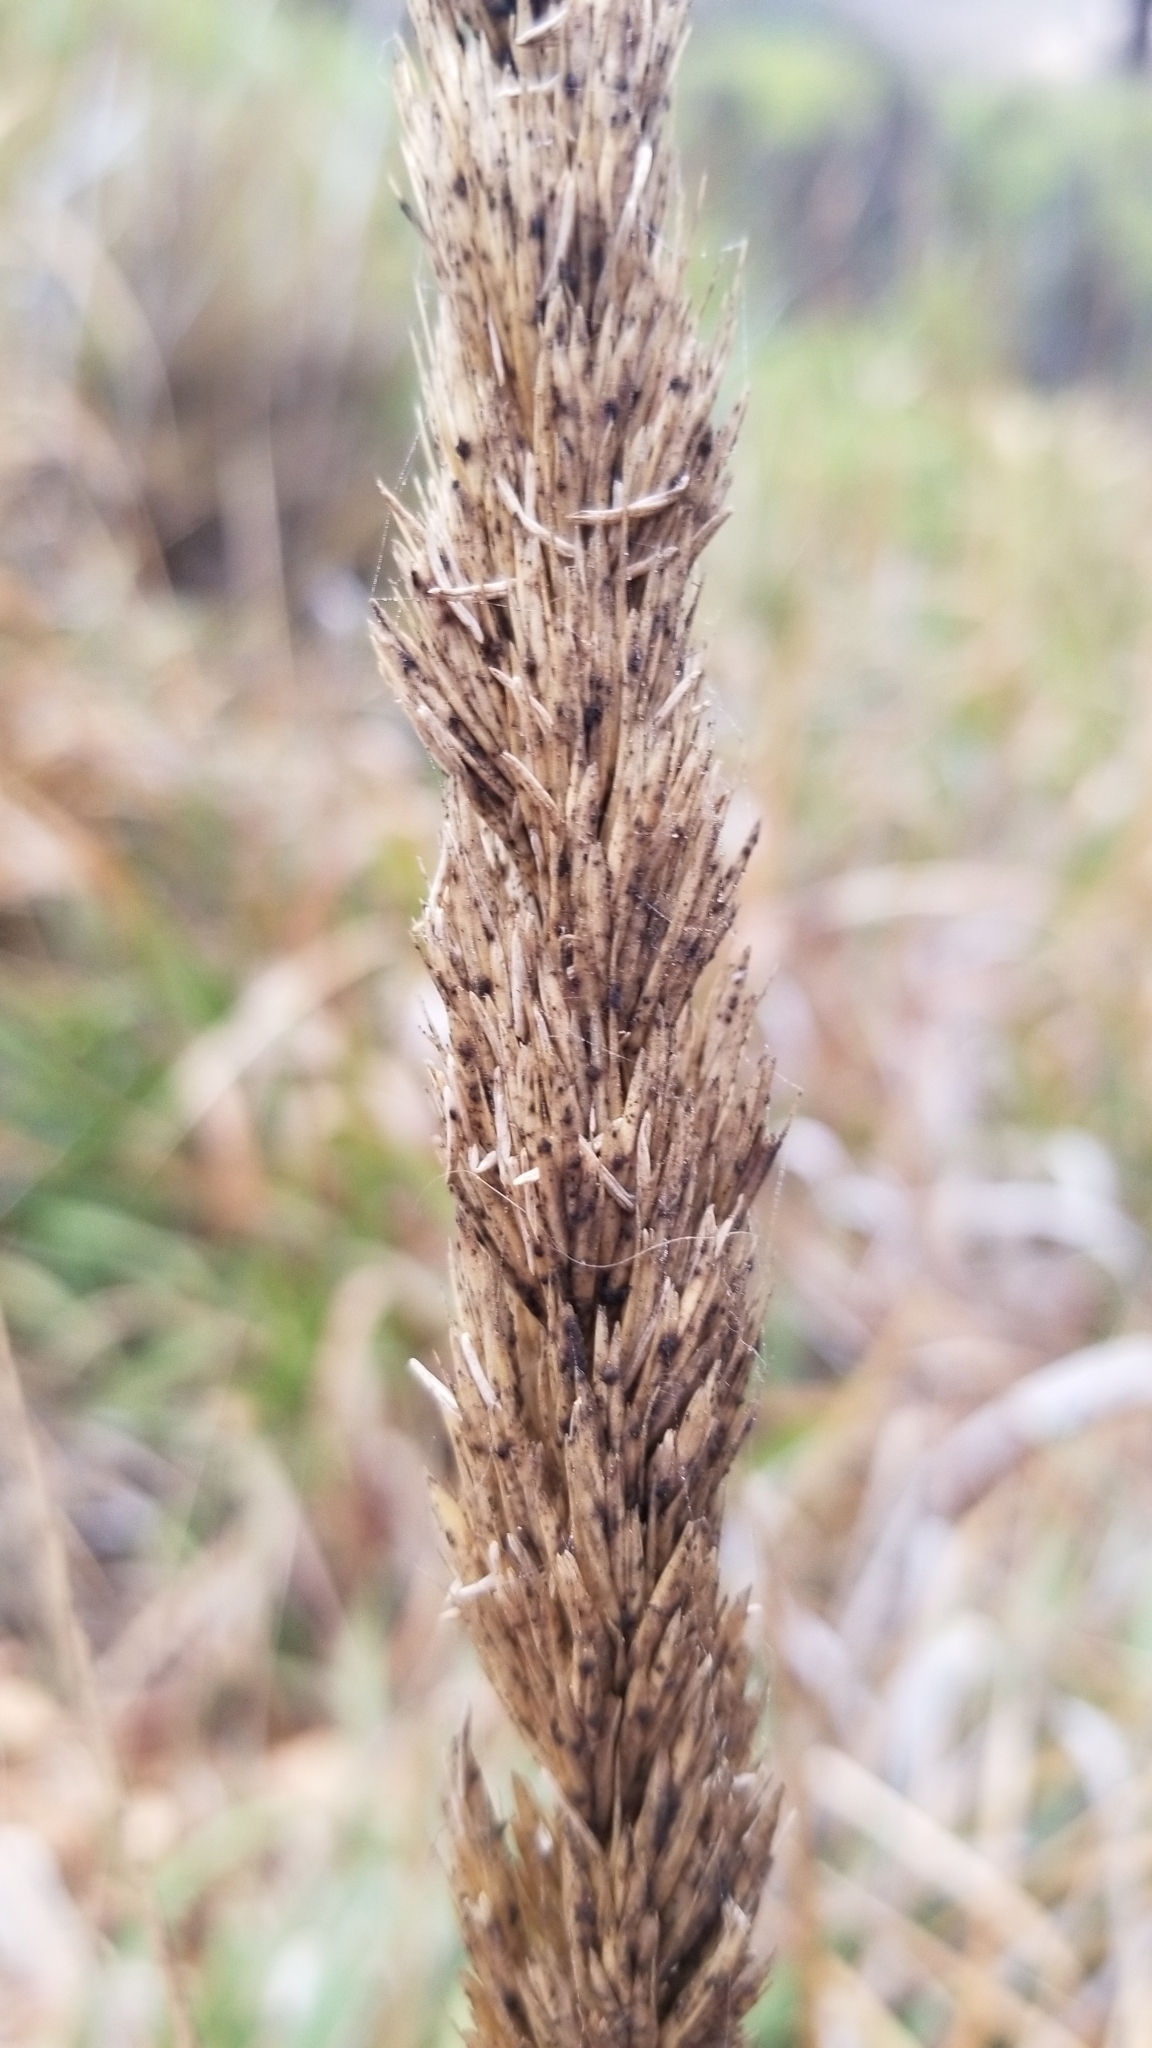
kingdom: Plantae
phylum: Tracheophyta
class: Liliopsida
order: Poales
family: Poaceae
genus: Leymus
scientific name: Leymus condensatus
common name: Giant wild rye
